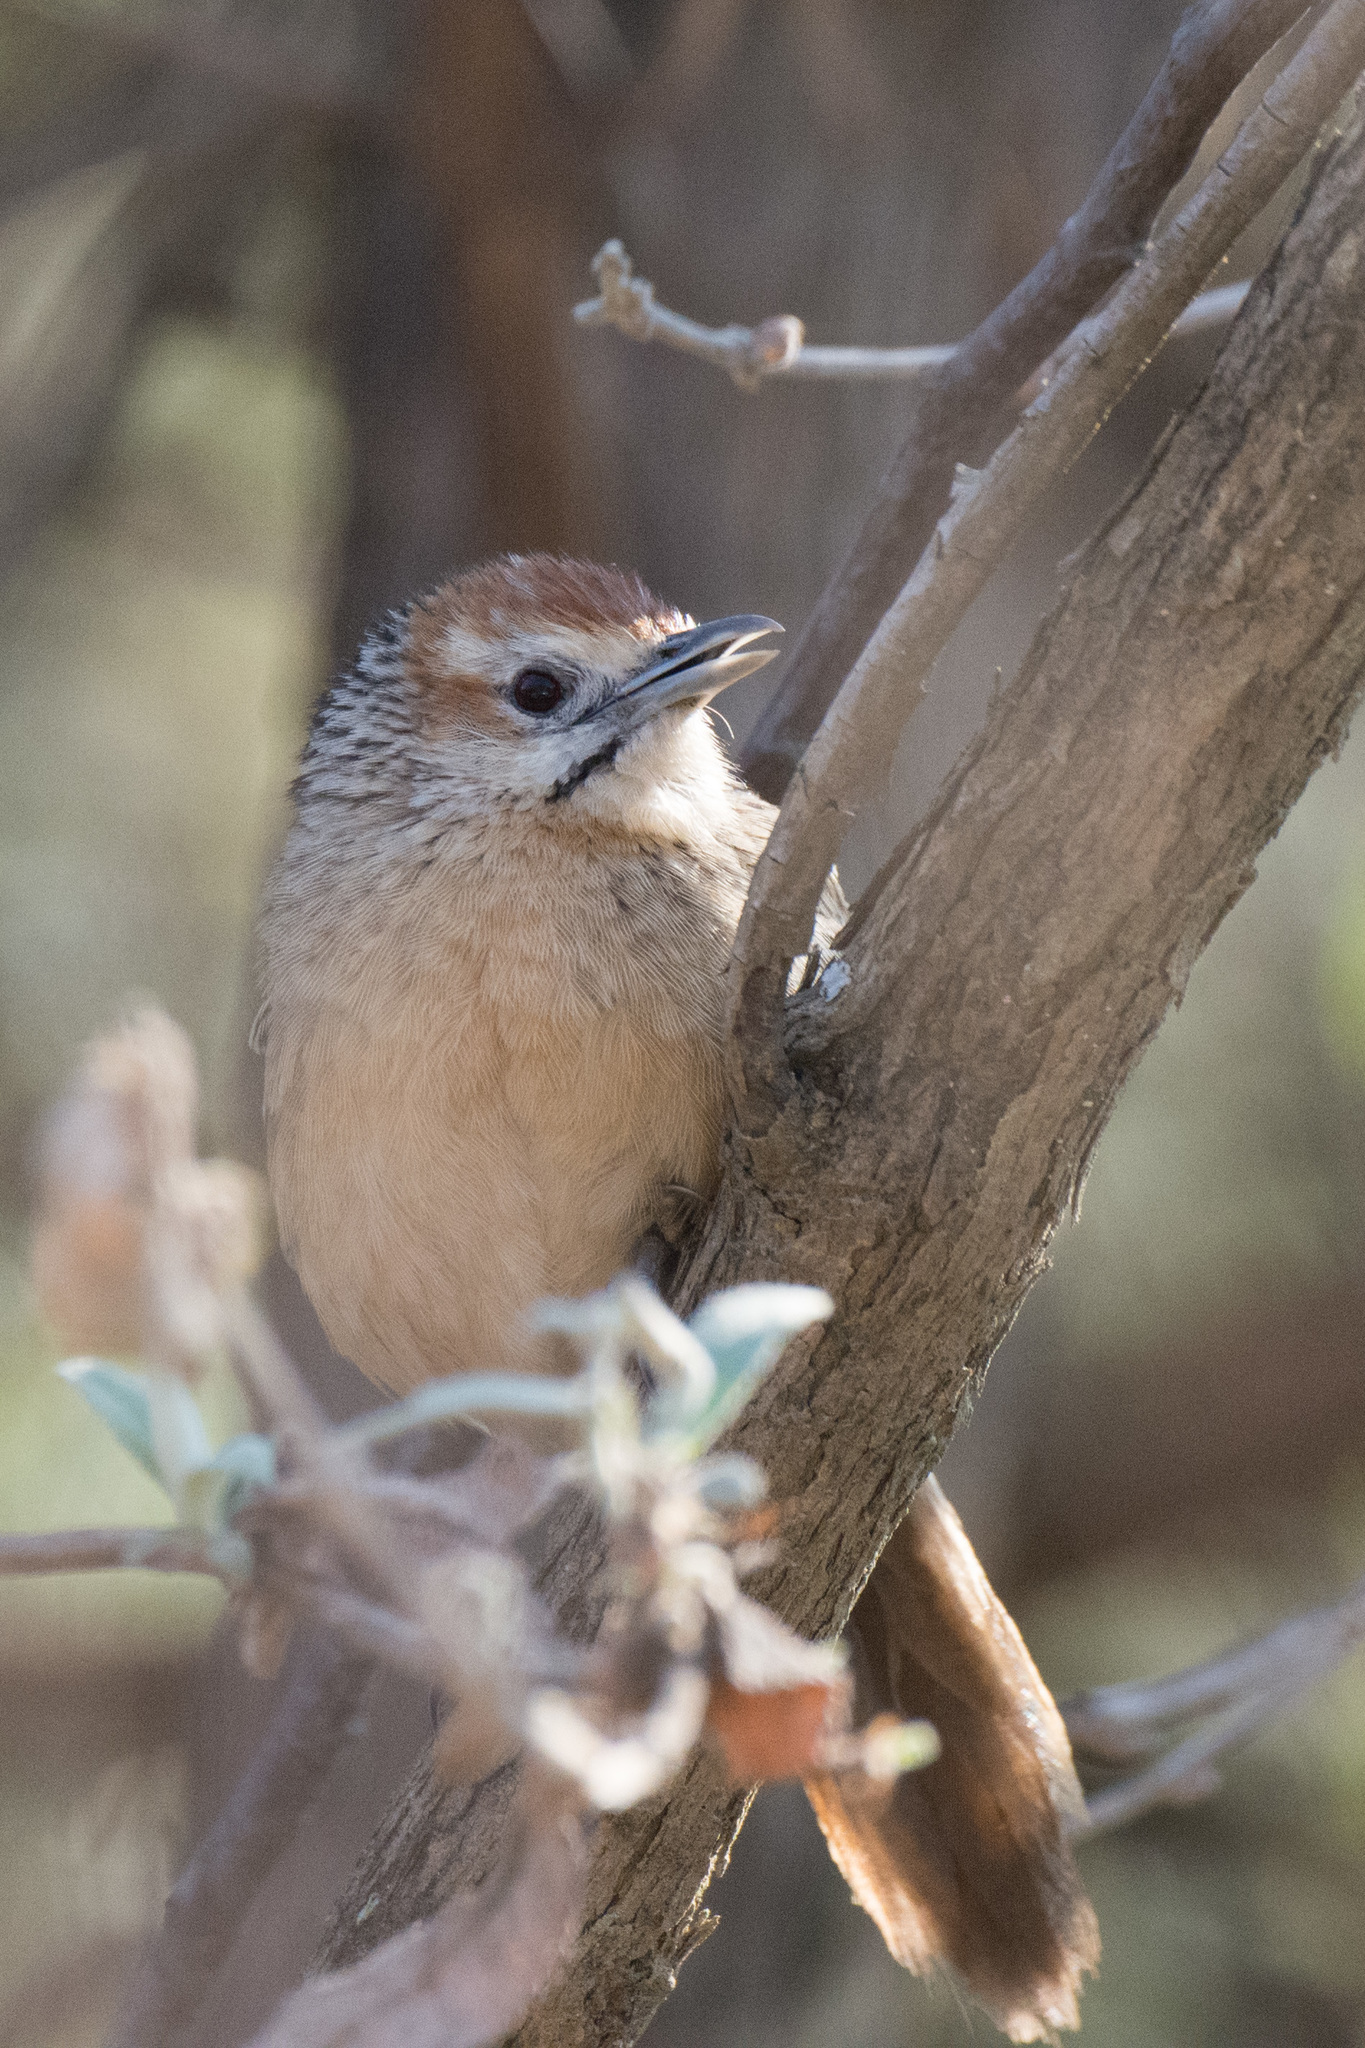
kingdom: Animalia
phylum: Chordata
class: Aves
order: Passeriformes
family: Macrosphenidae
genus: Sphenoeacus
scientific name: Sphenoeacus afer
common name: Cape grassbird
